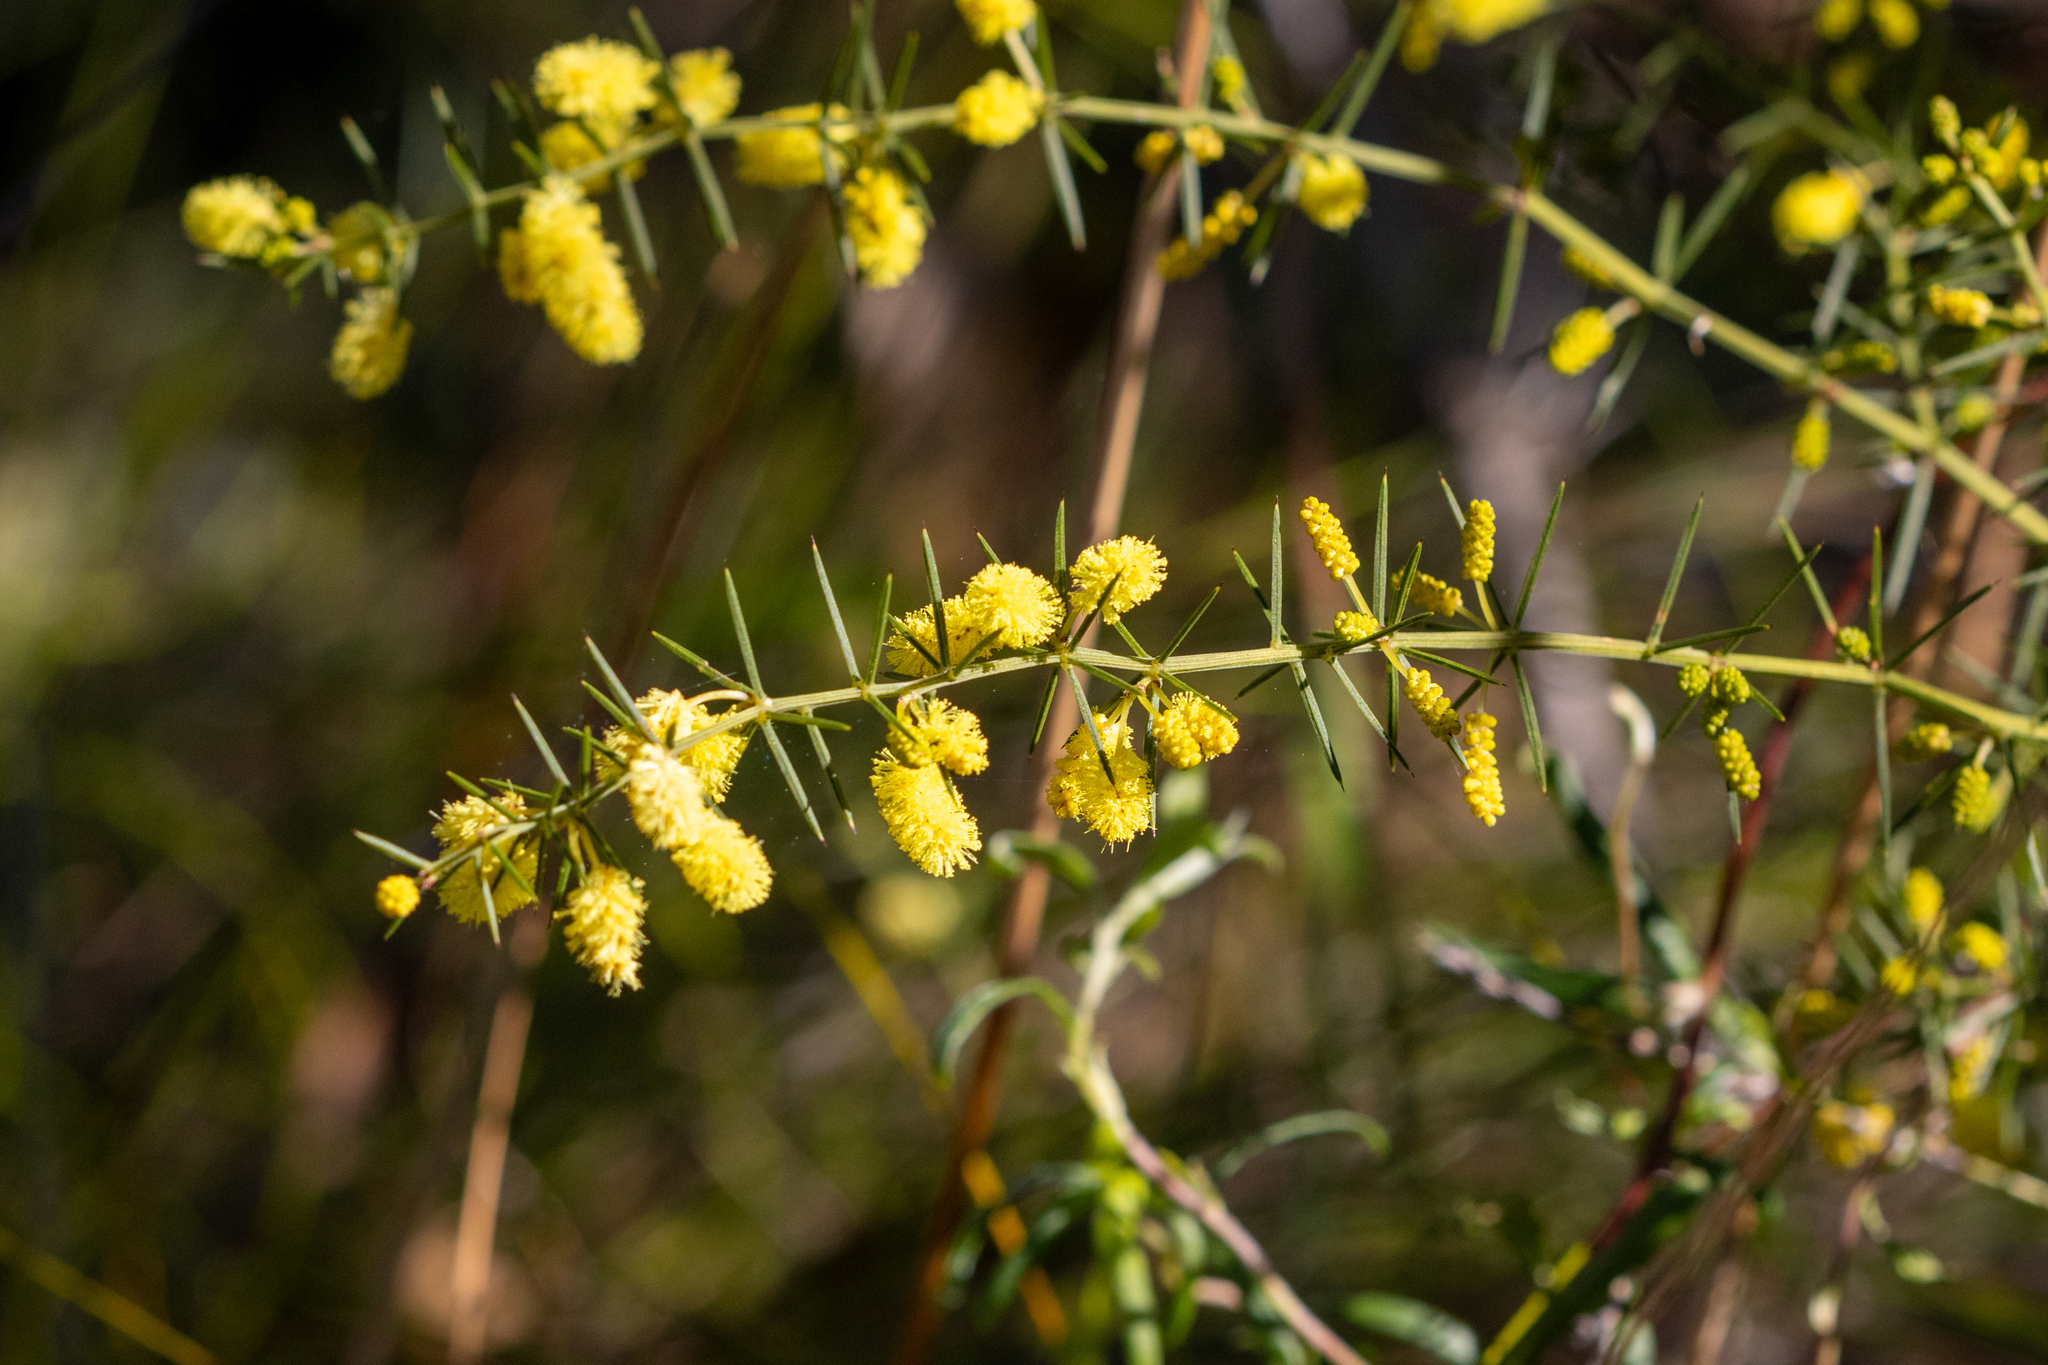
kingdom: Plantae
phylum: Tracheophyta
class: Magnoliopsida
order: Fabales
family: Fabaceae
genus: Acacia
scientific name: Acacia verticillata
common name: Prickly moses
